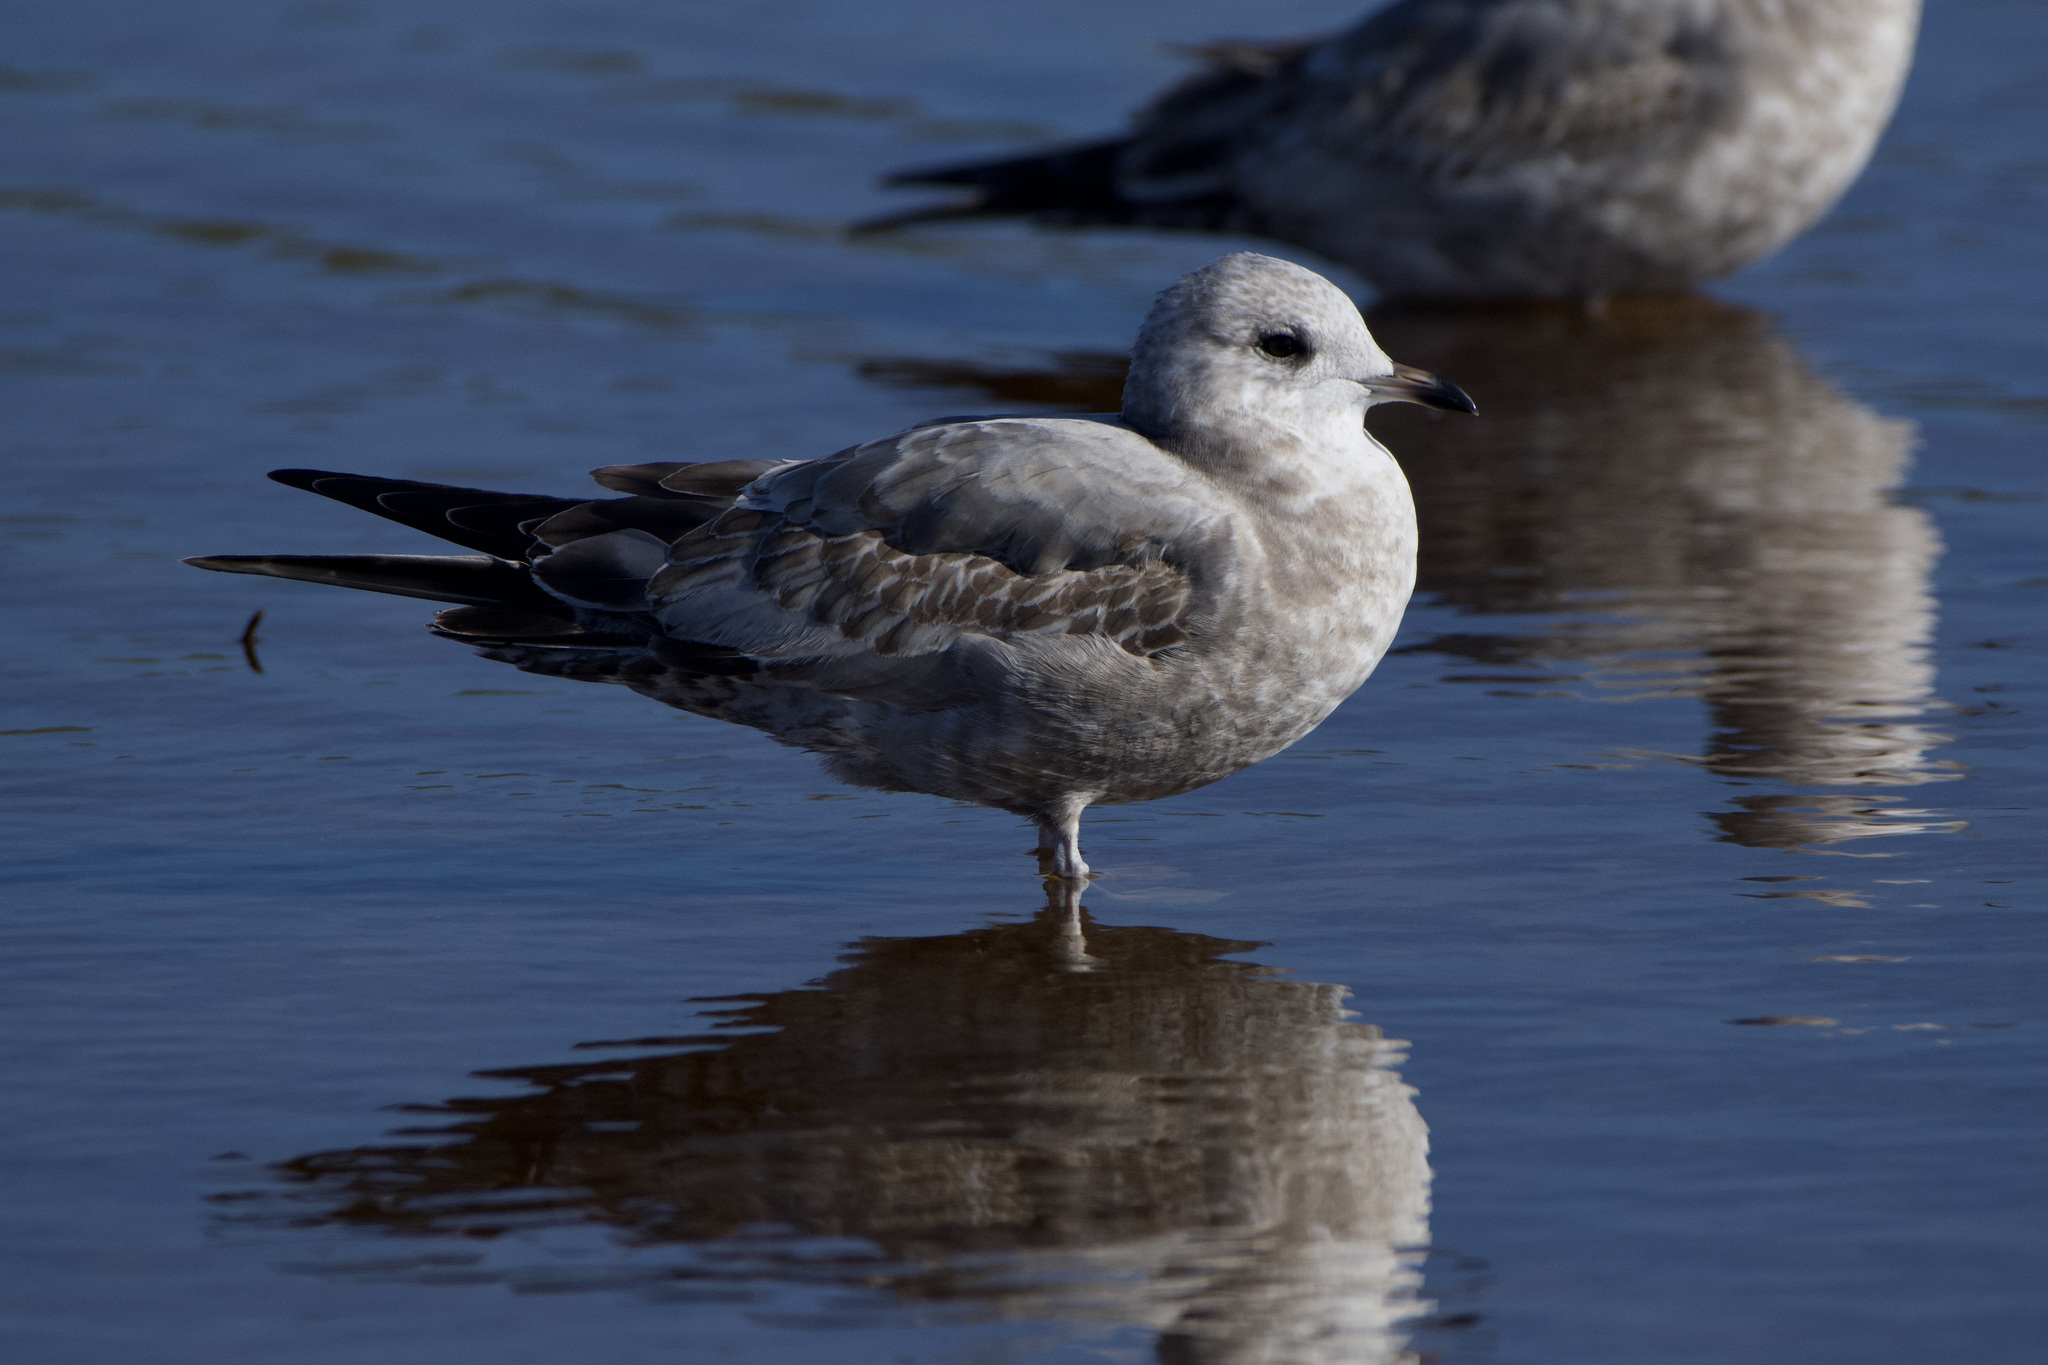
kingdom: Animalia
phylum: Chordata
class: Aves
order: Charadriiformes
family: Laridae
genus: Larus
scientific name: Larus brachyrhynchus
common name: Short-billed gull
